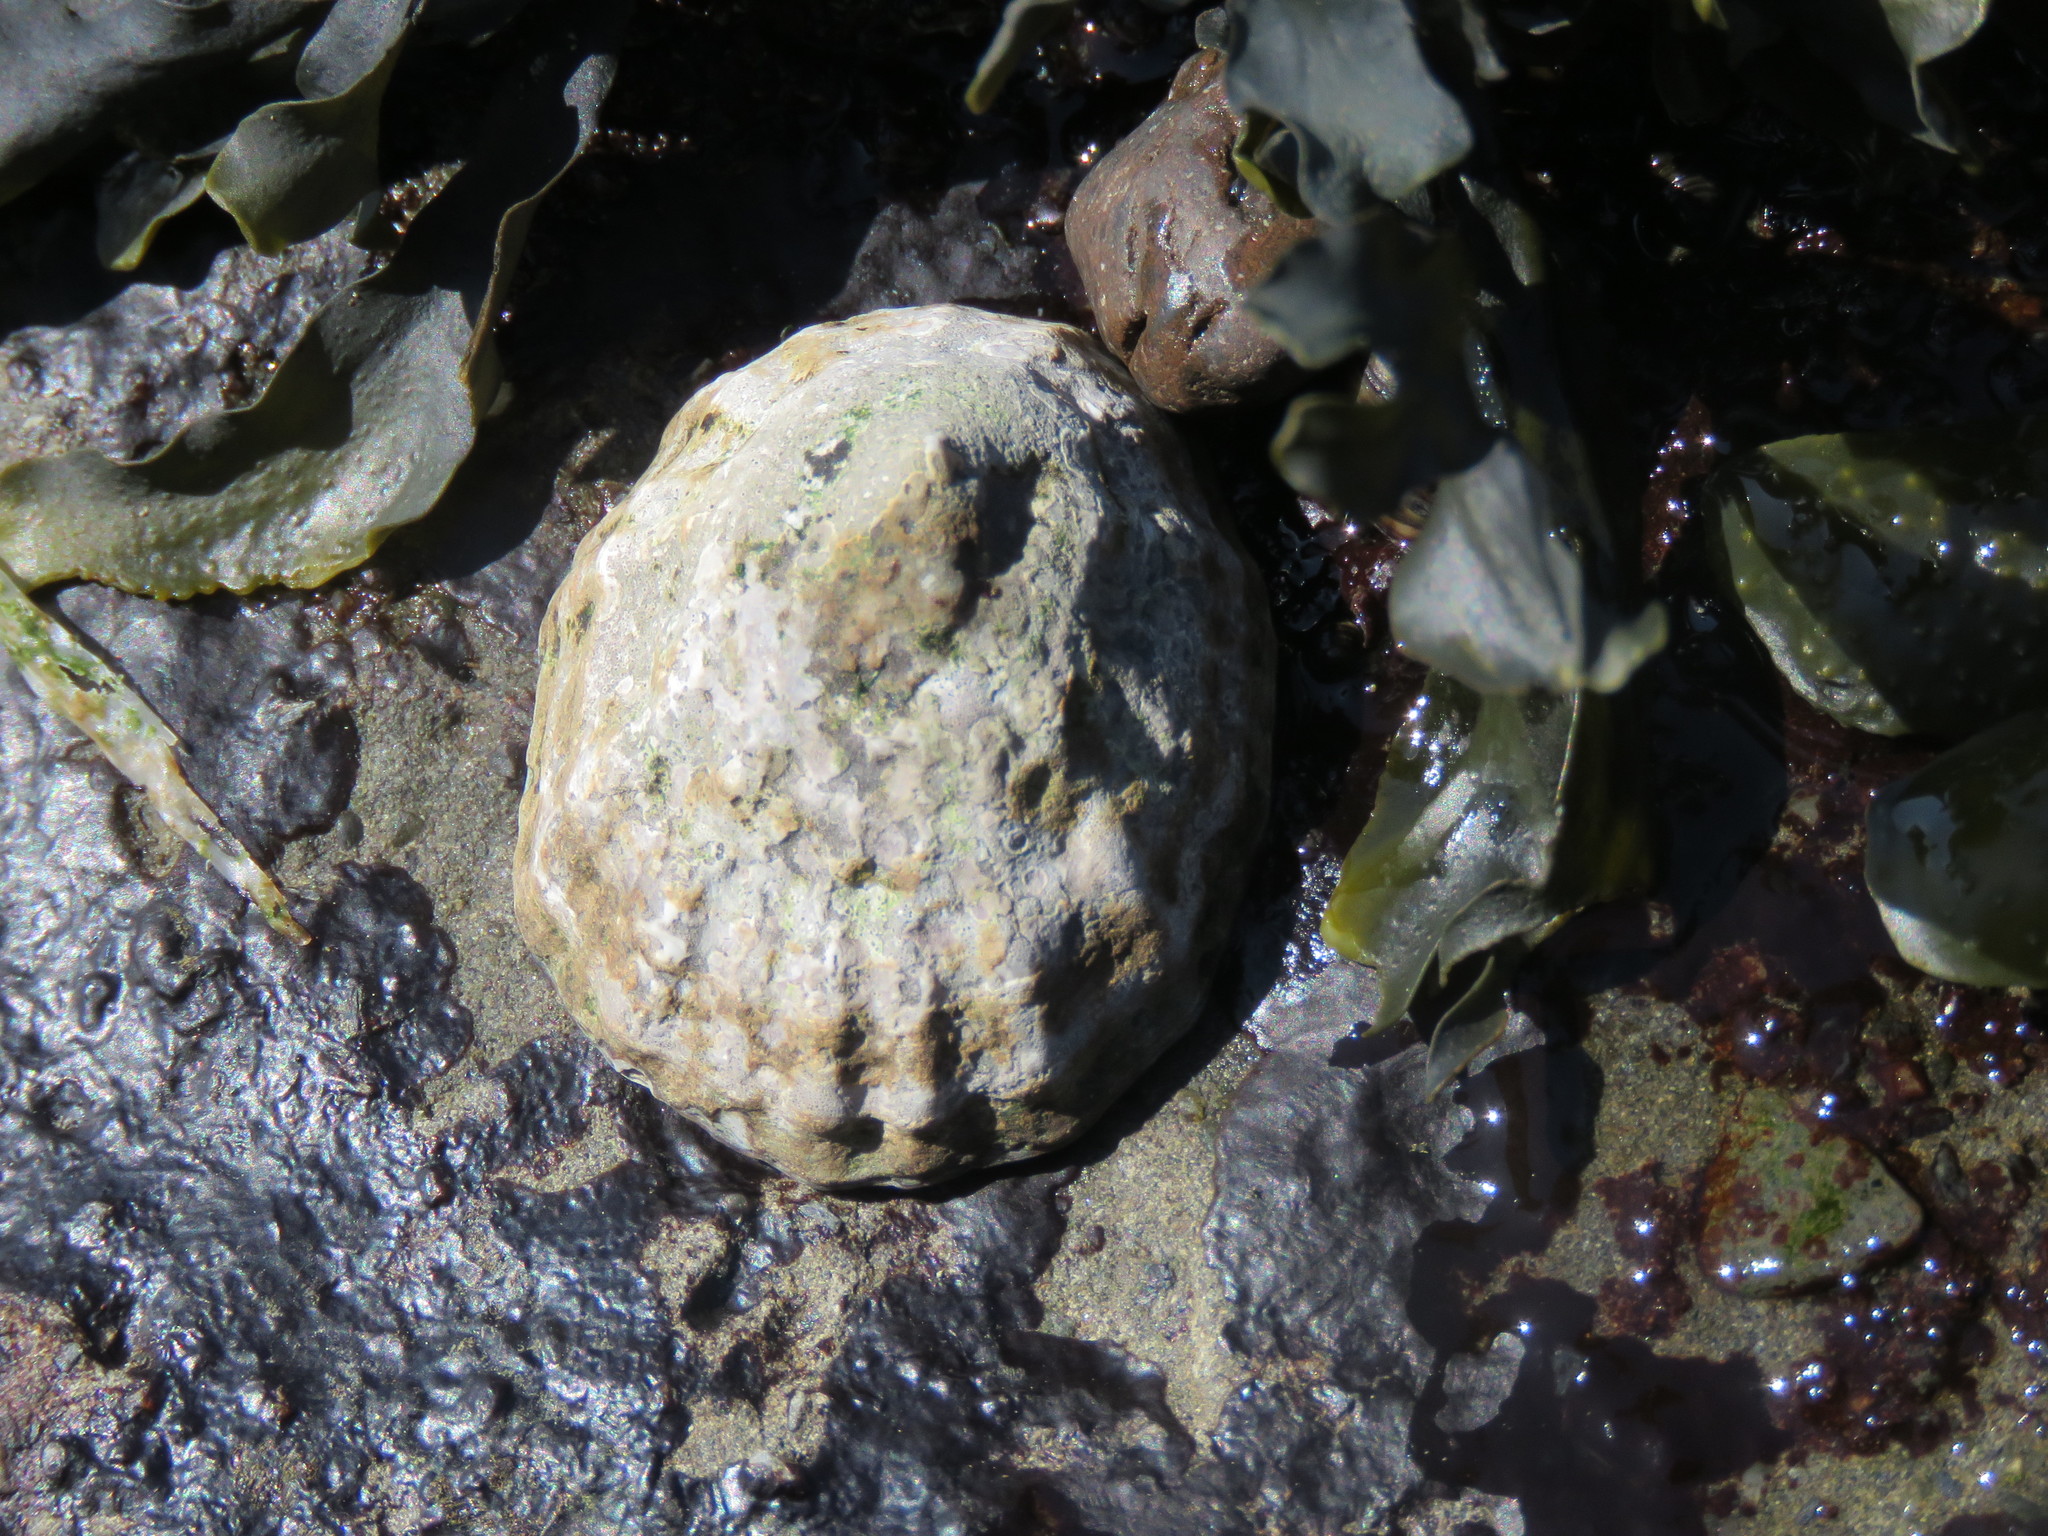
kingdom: Animalia
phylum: Mollusca
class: Gastropoda
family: Lottiidae
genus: Lottia
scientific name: Lottia digitalis
